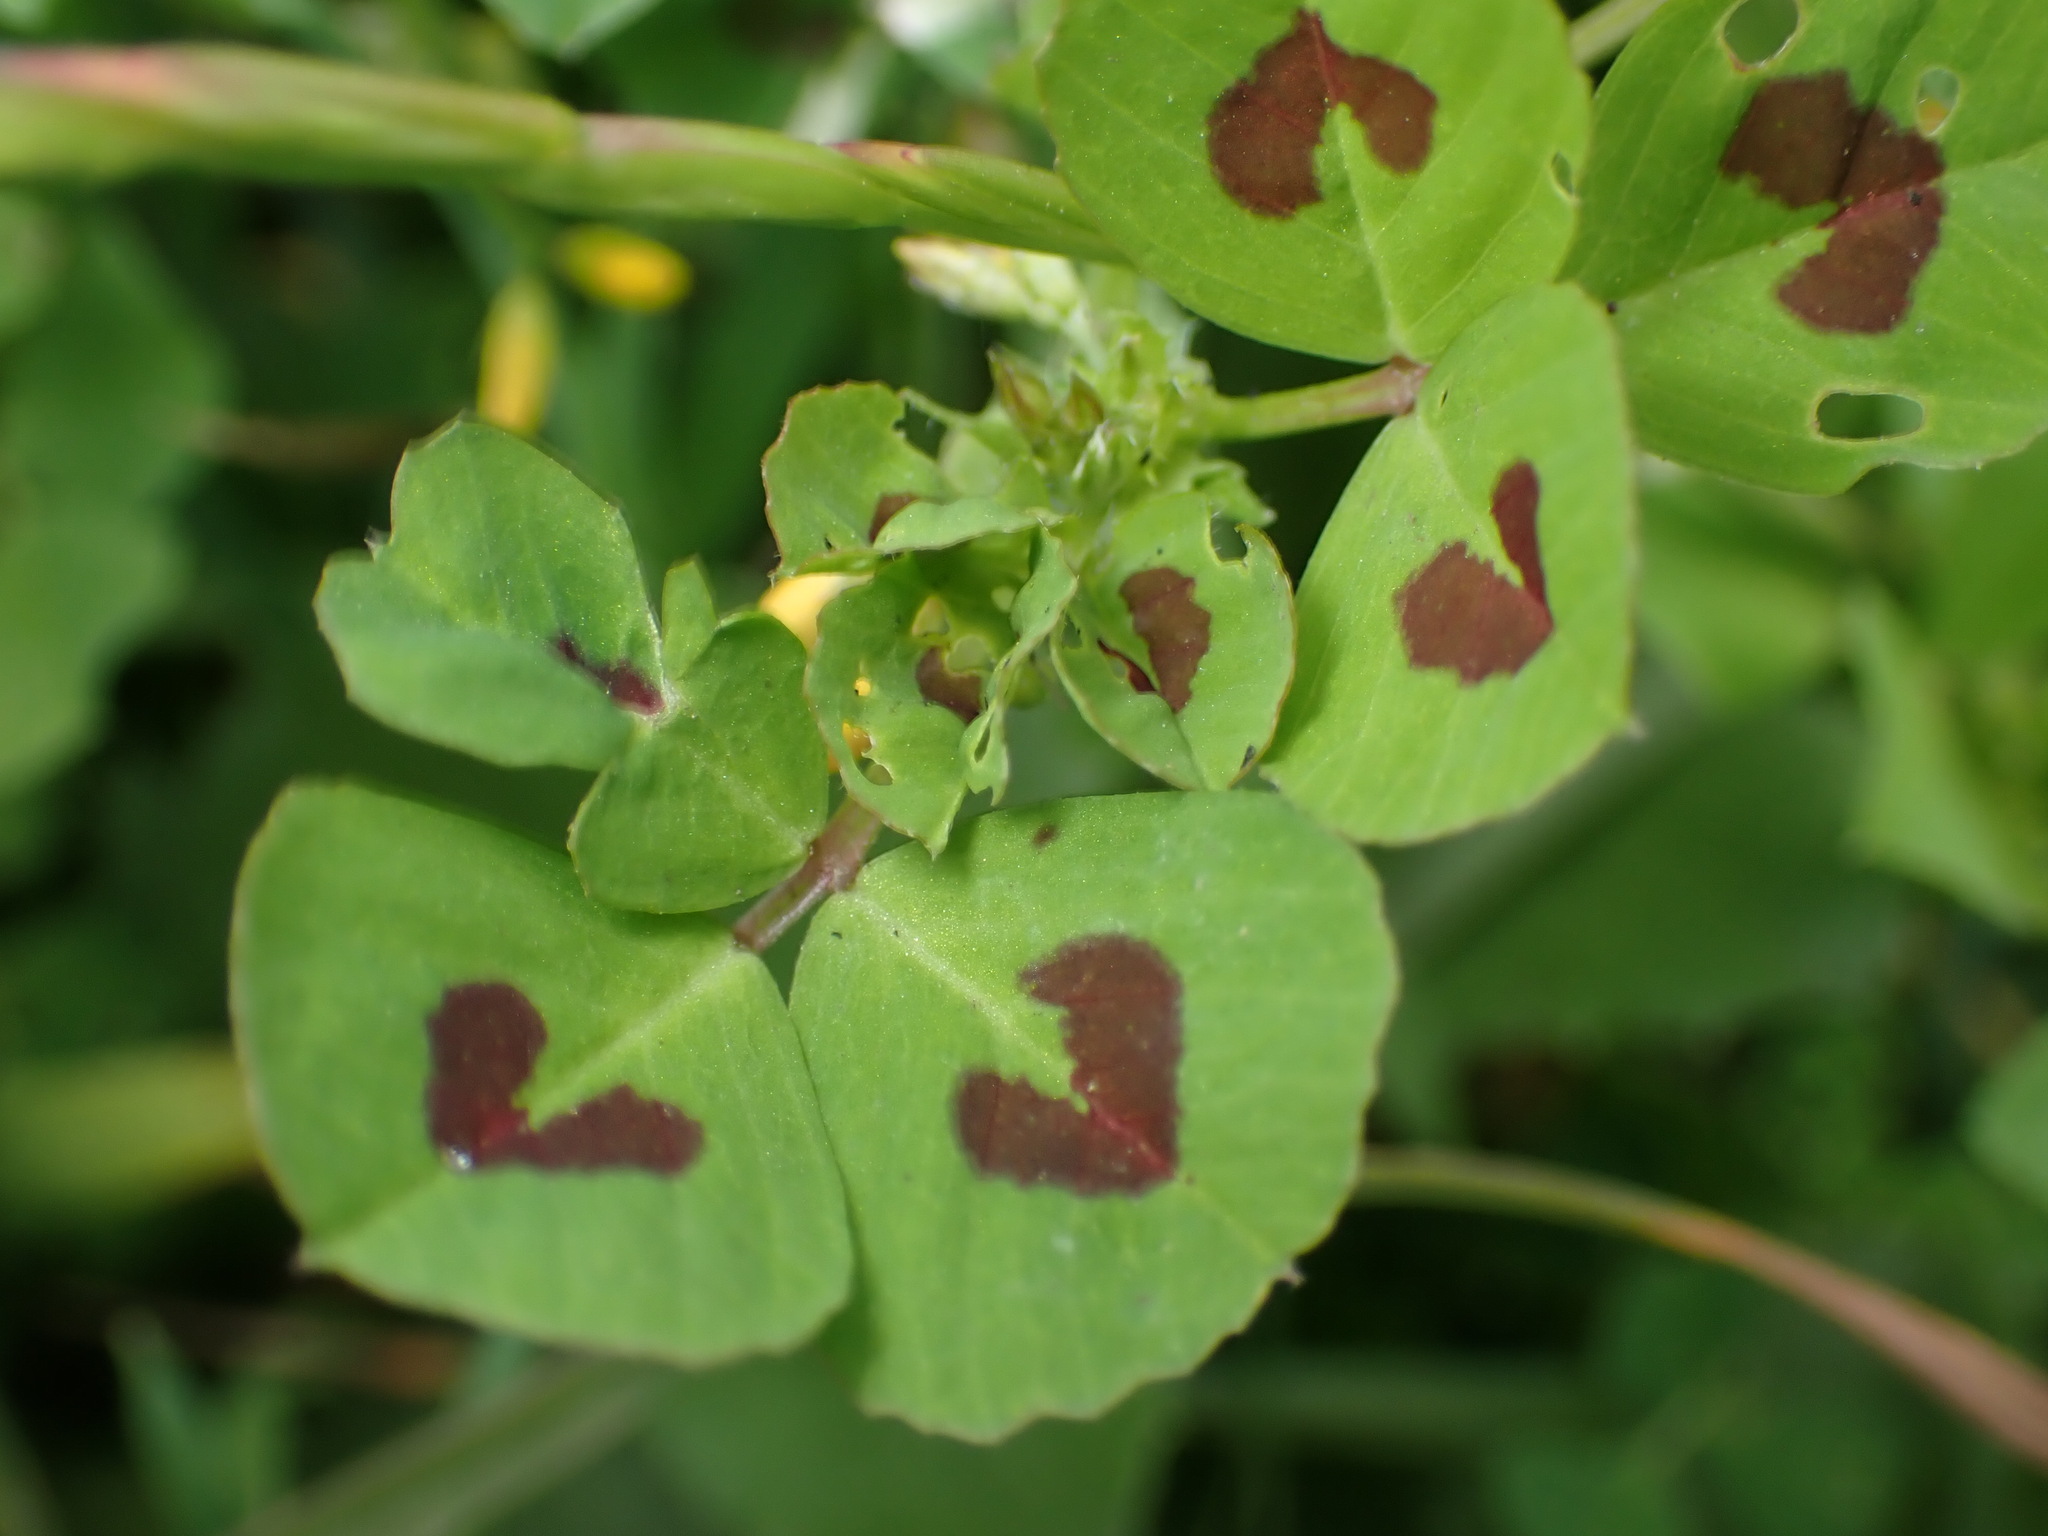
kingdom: Plantae
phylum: Tracheophyta
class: Magnoliopsida
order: Fabales
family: Fabaceae
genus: Medicago
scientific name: Medicago arabica
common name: Spotted medick
